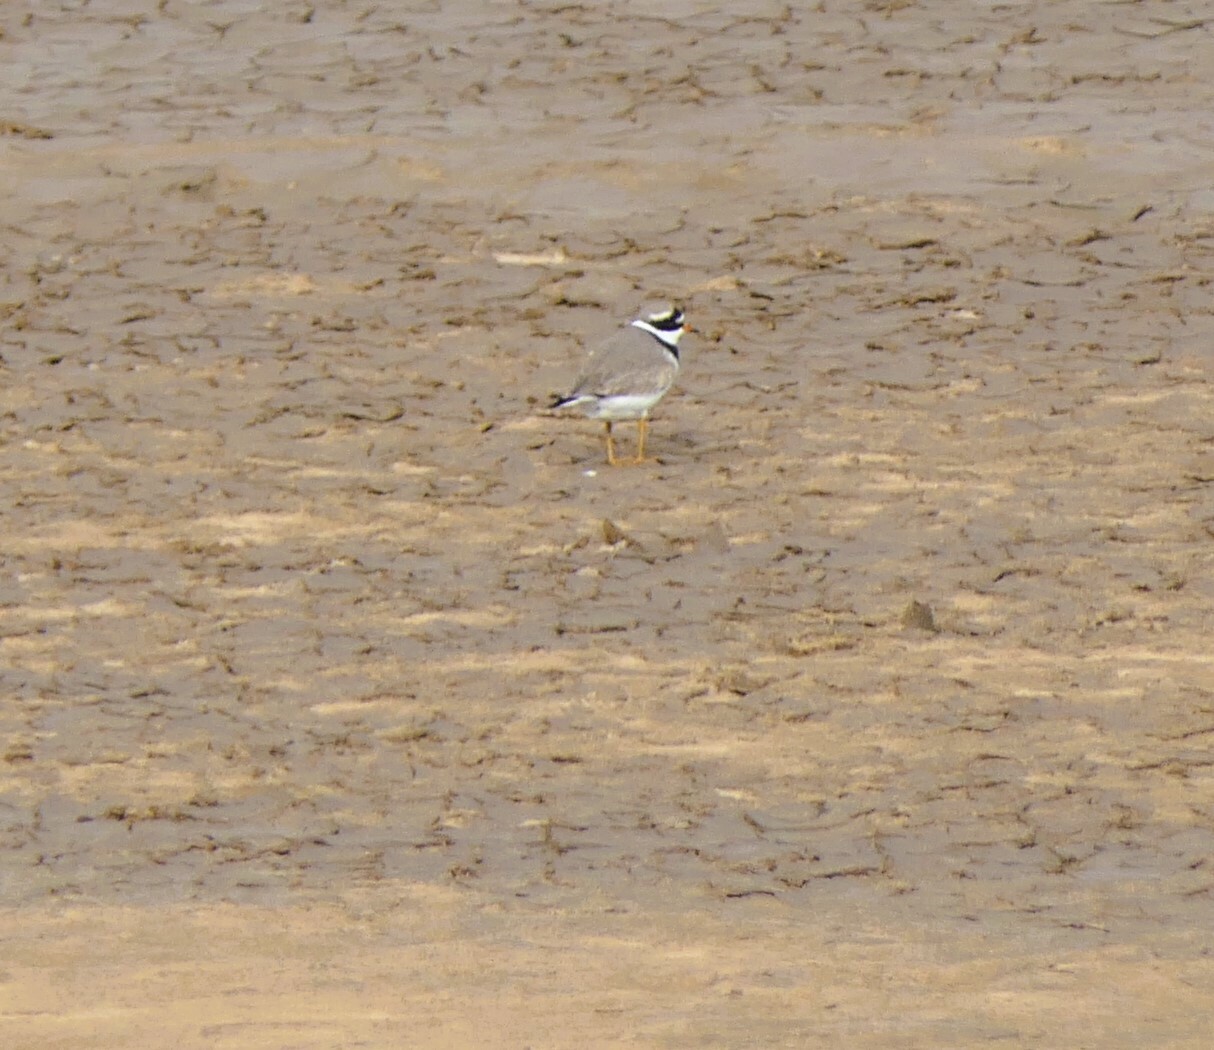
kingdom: Animalia
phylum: Chordata
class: Aves
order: Charadriiformes
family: Charadriidae
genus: Charadrius
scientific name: Charadrius hiaticula
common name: Common ringed plover
